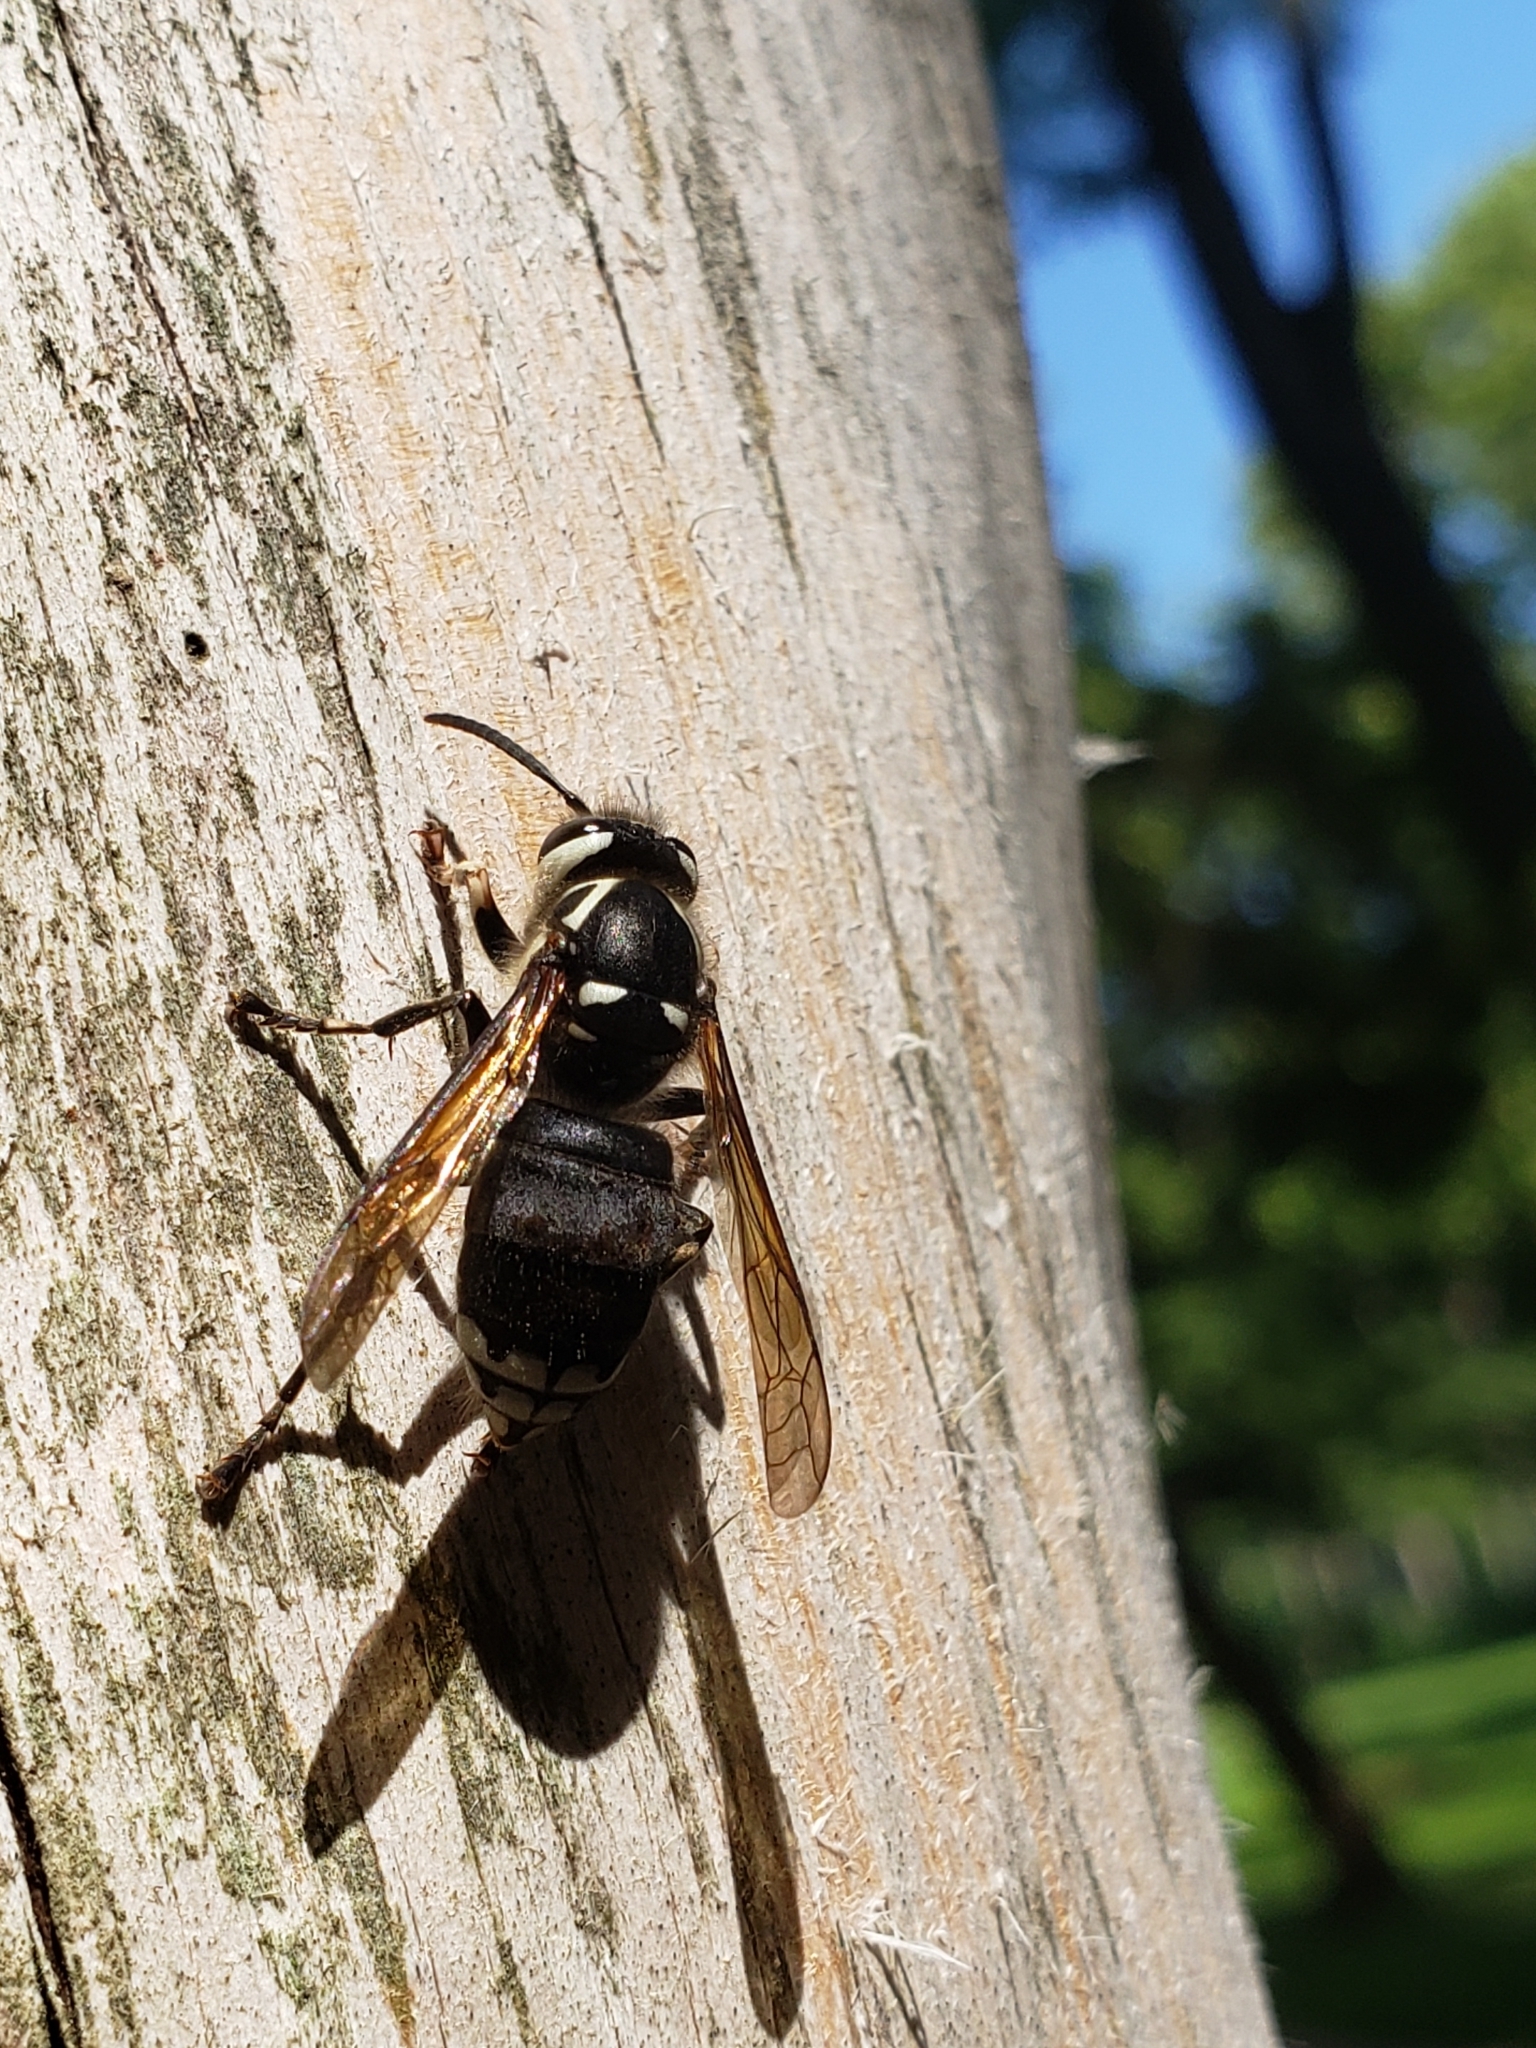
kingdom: Animalia
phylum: Arthropoda
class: Insecta
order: Hymenoptera
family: Vespidae
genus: Dolichovespula
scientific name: Dolichovespula maculata
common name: Bald-faced hornet
